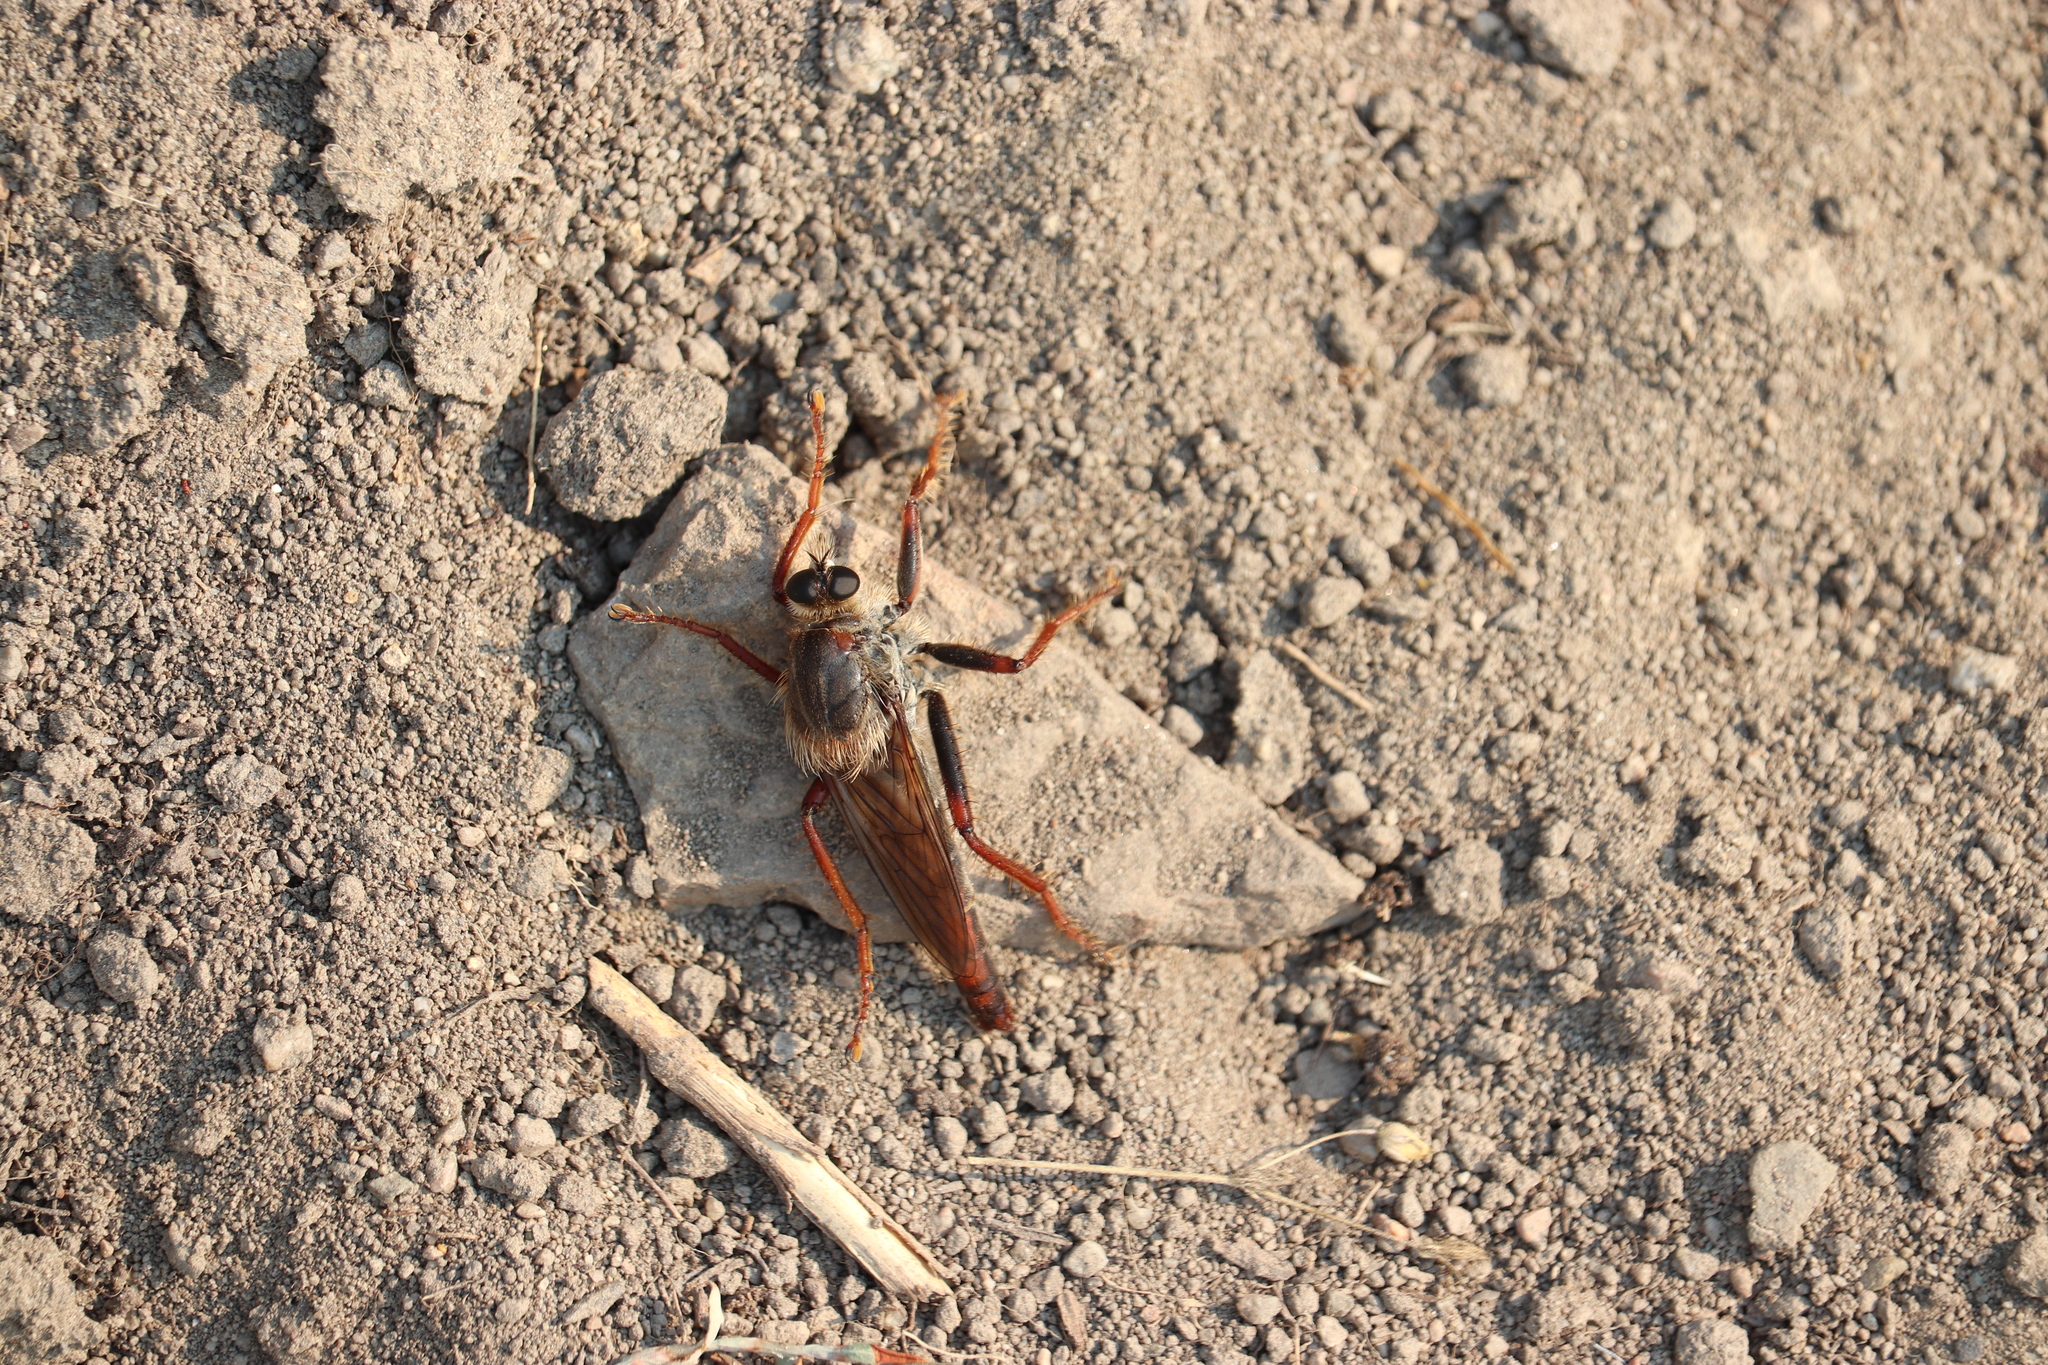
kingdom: Animalia
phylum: Arthropoda
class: Insecta
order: Diptera
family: Asilidae
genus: Stenopogon
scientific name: Stenopogon inquinatus
